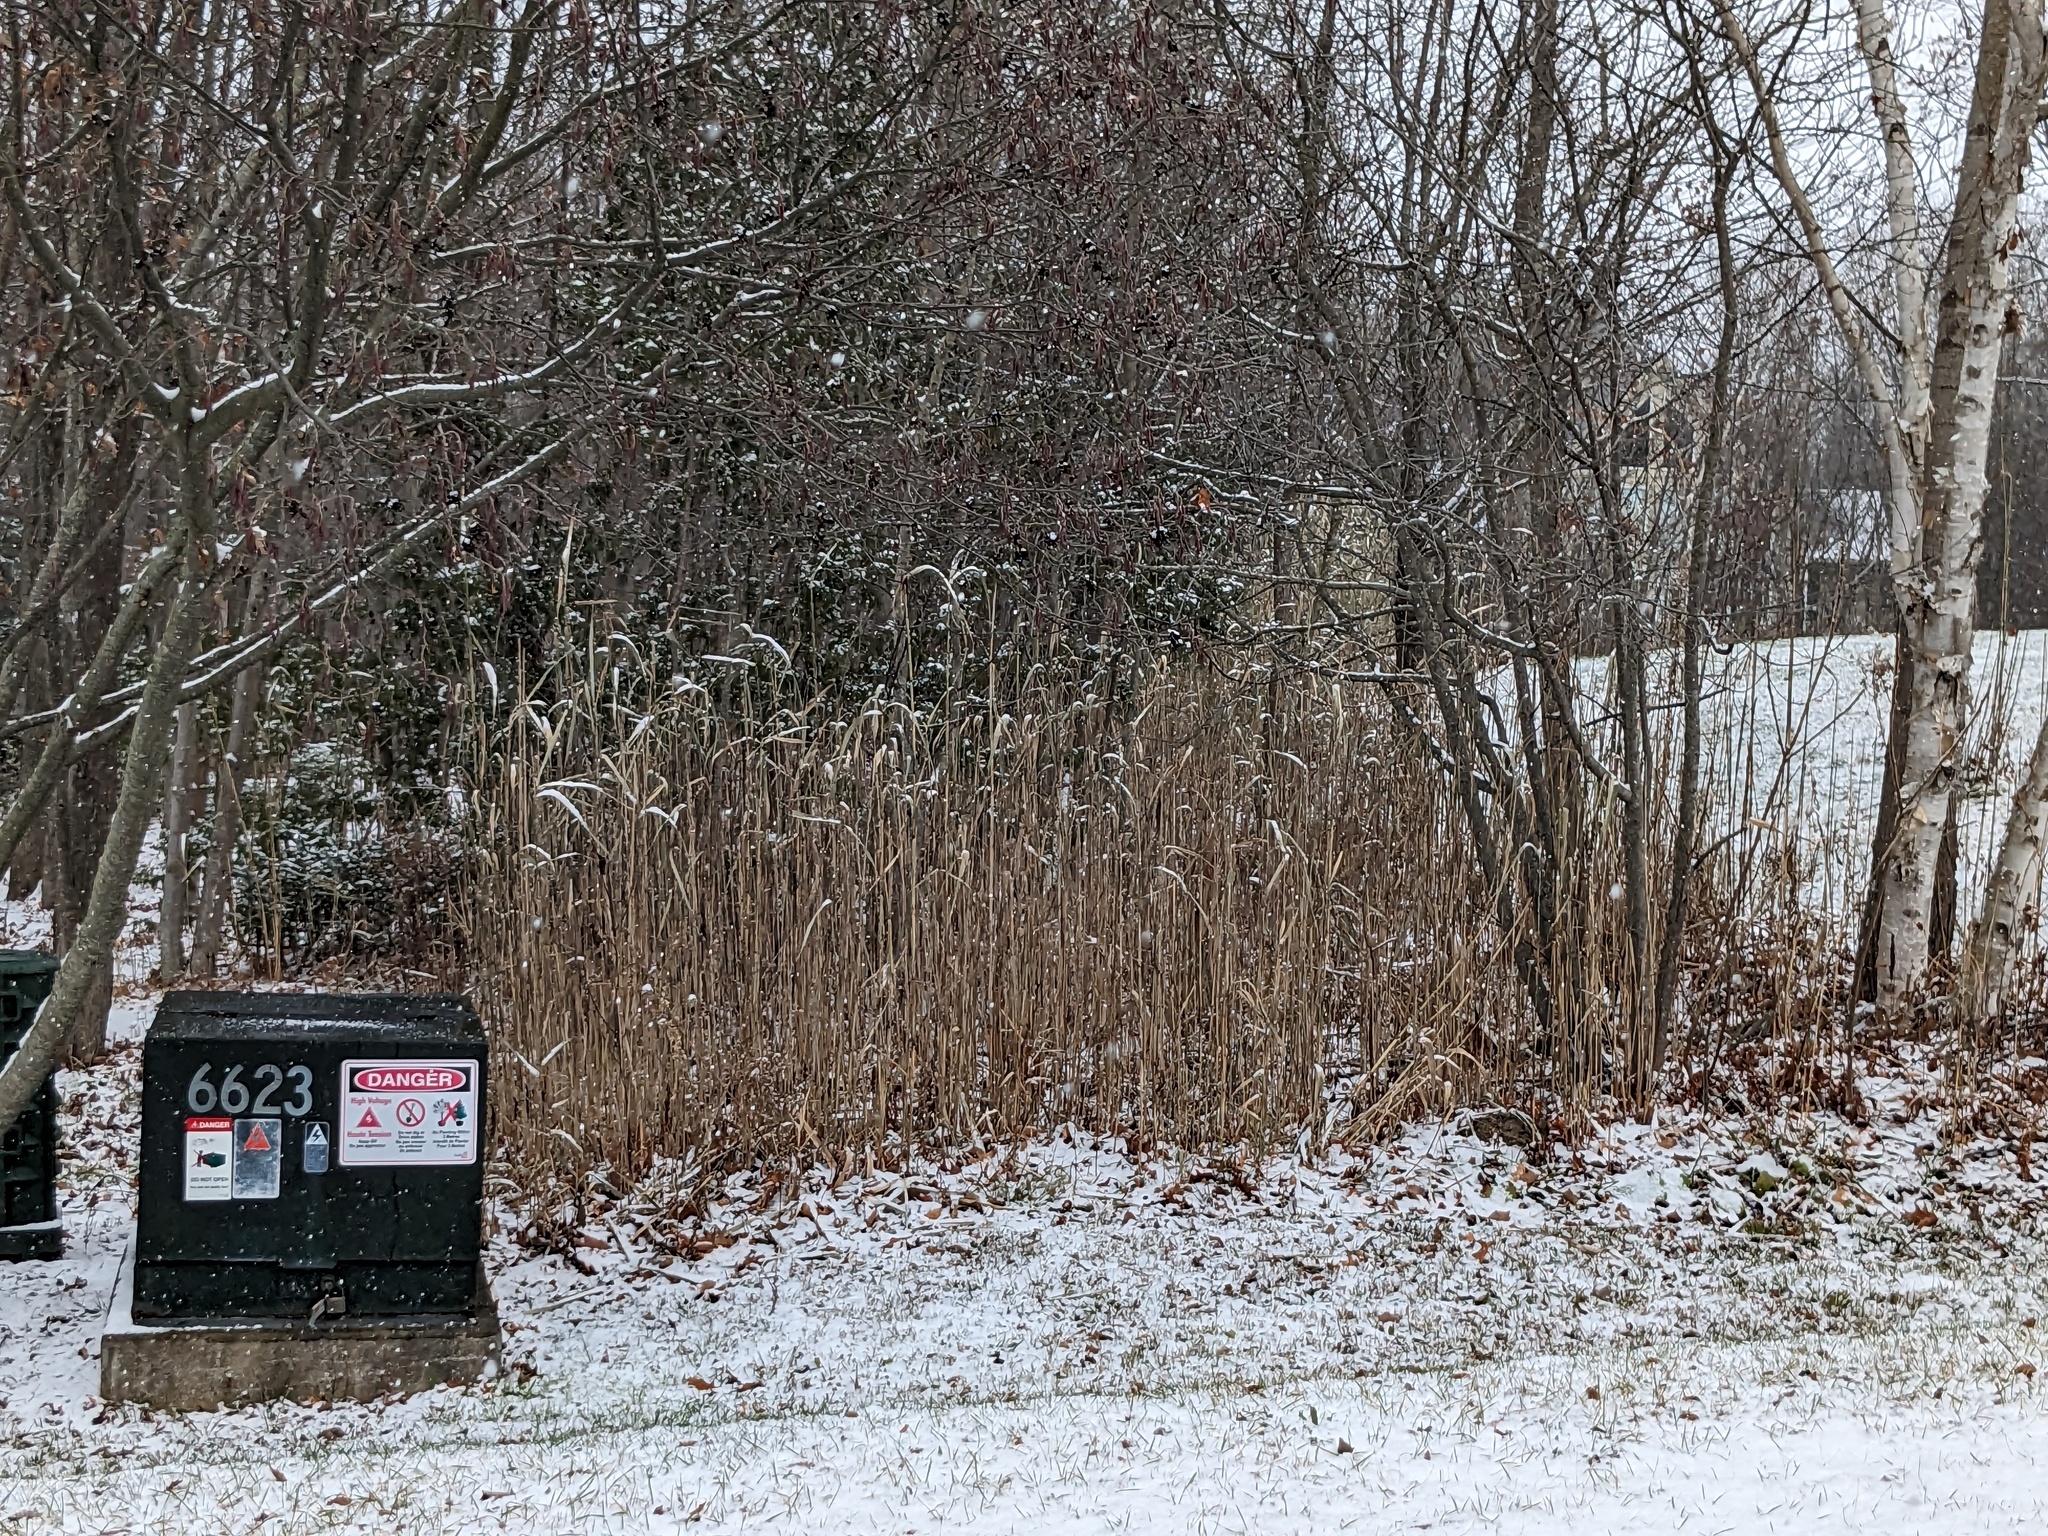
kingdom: Plantae
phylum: Tracheophyta
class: Liliopsida
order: Poales
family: Poaceae
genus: Phragmites
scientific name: Phragmites australis
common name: Common reed
